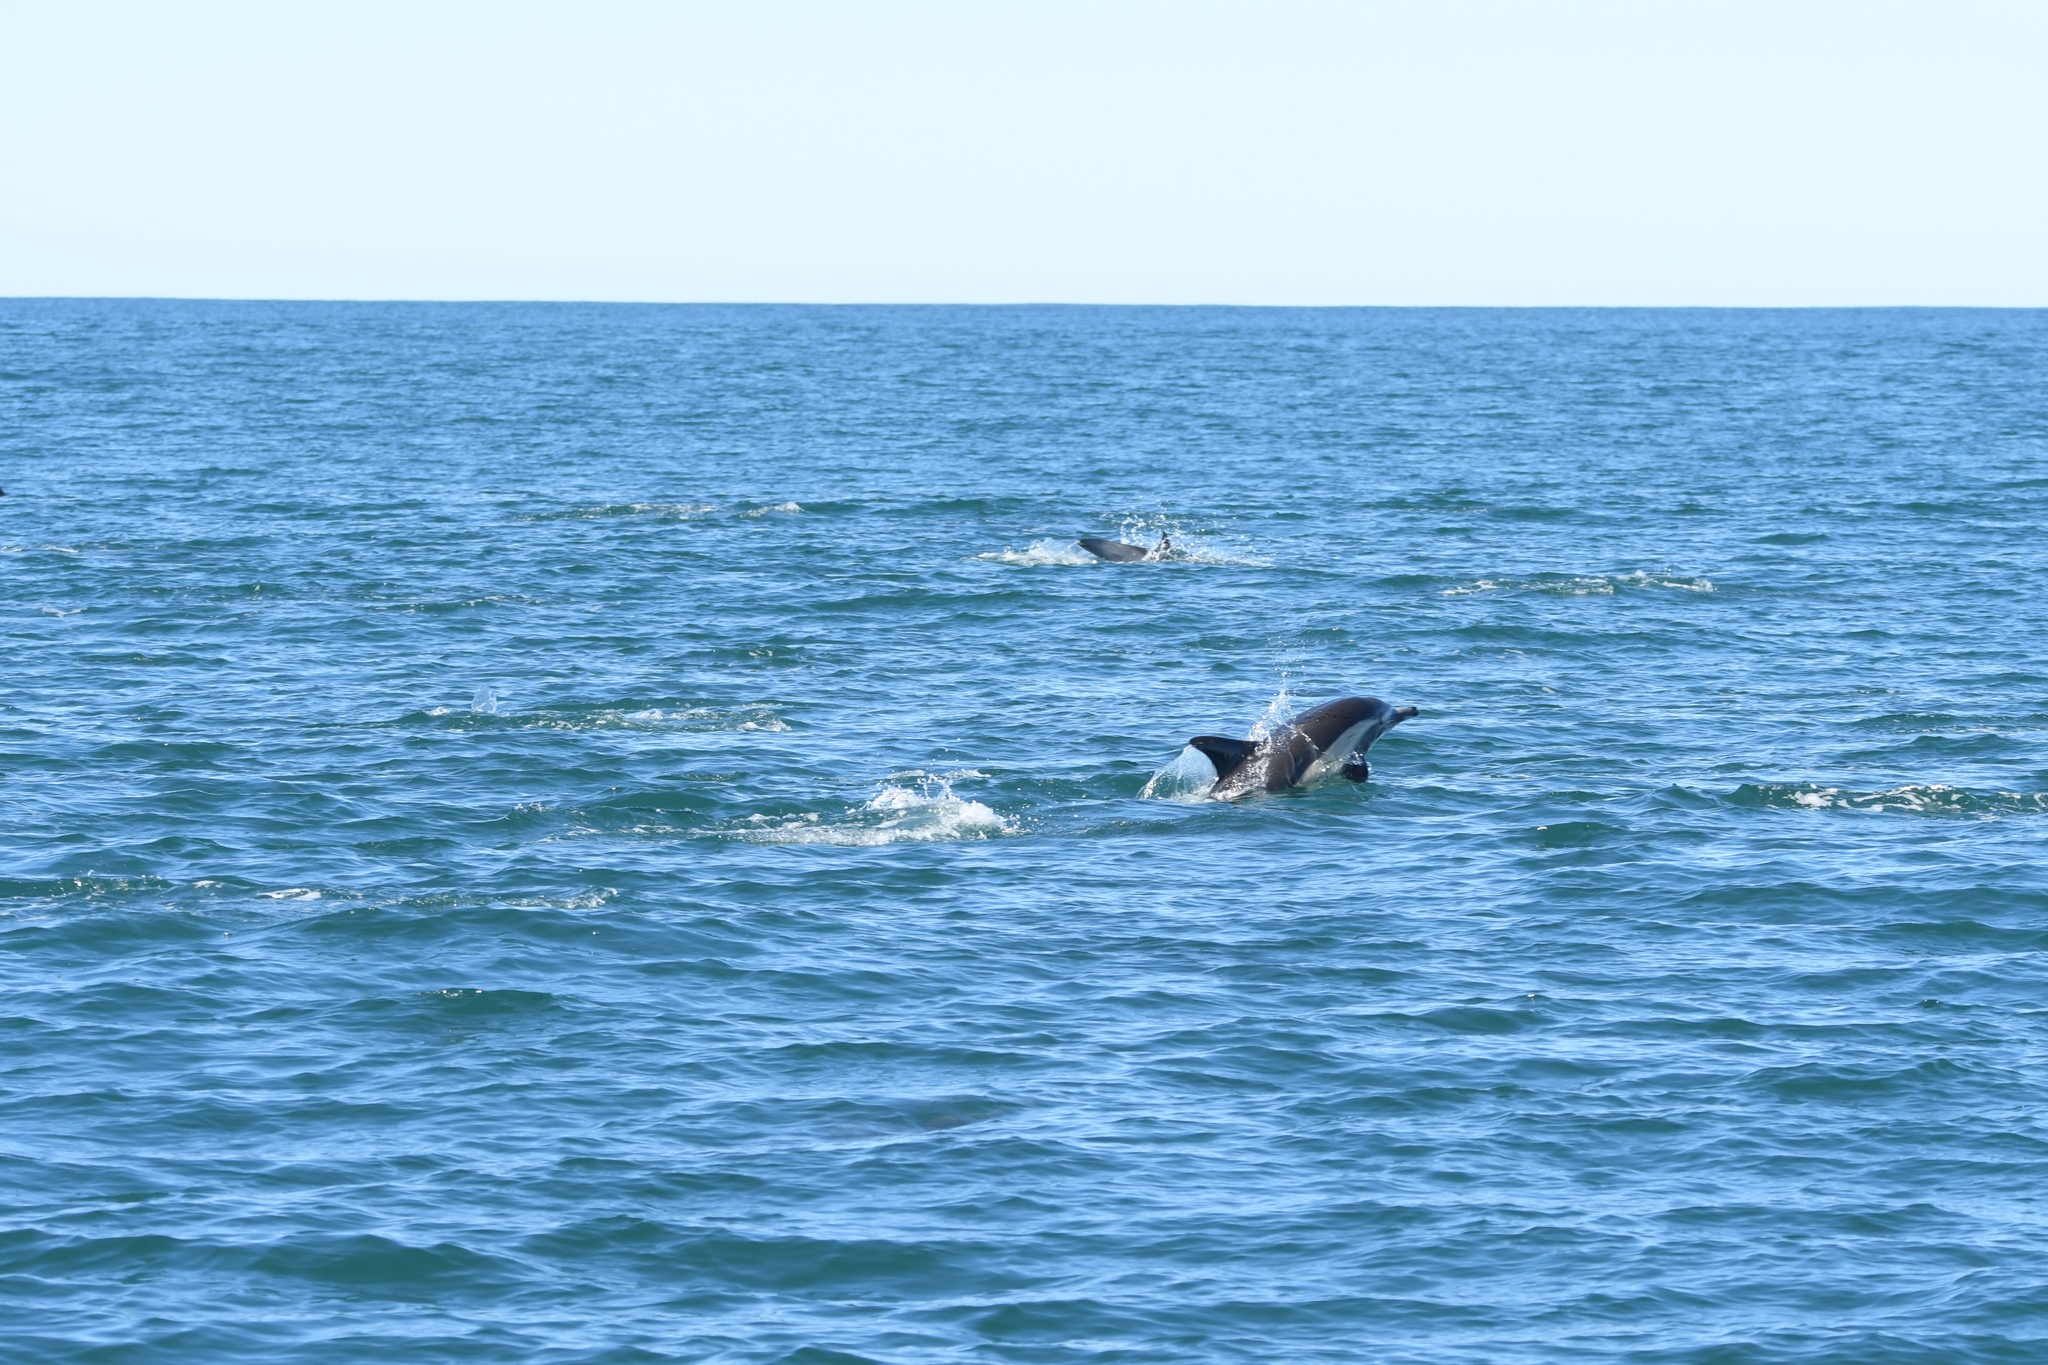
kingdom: Animalia
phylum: Chordata
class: Mammalia
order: Cetacea
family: Delphinidae
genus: Delphinus
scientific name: Delphinus delphis
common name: Common dolphin
